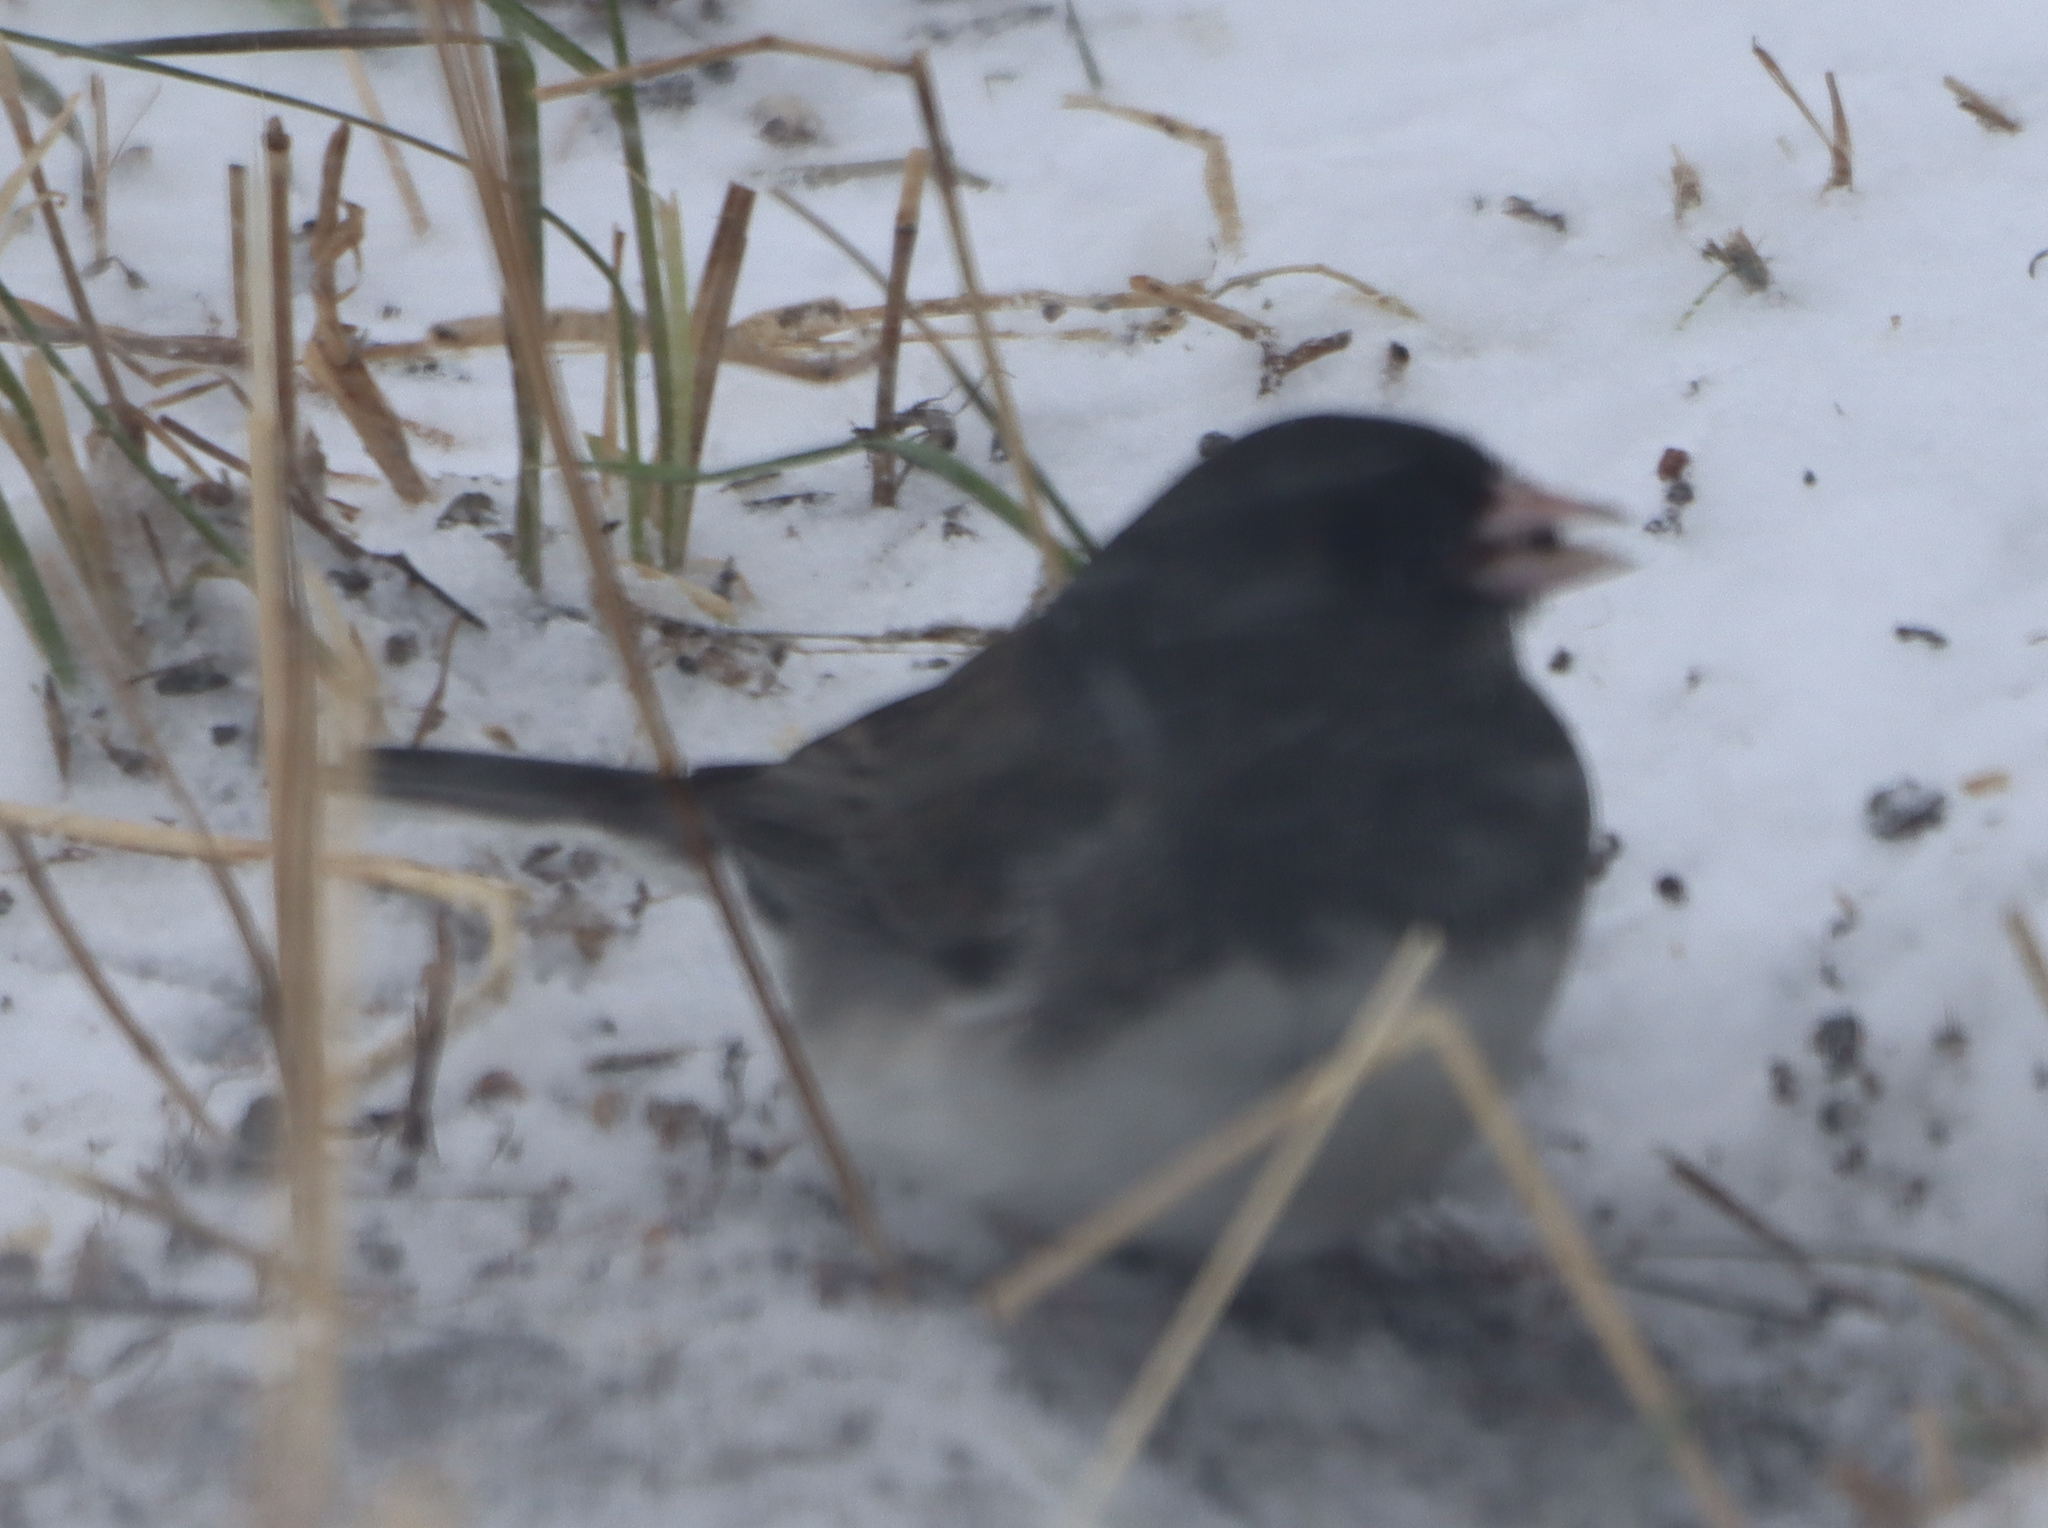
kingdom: Animalia
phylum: Chordata
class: Aves
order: Passeriformes
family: Passerellidae
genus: Junco
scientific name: Junco hyemalis
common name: Dark-eyed junco
